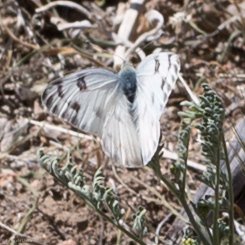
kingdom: Animalia
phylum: Arthropoda
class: Insecta
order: Lepidoptera
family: Pieridae
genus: Pontia
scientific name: Pontia protodice
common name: Checkered white
